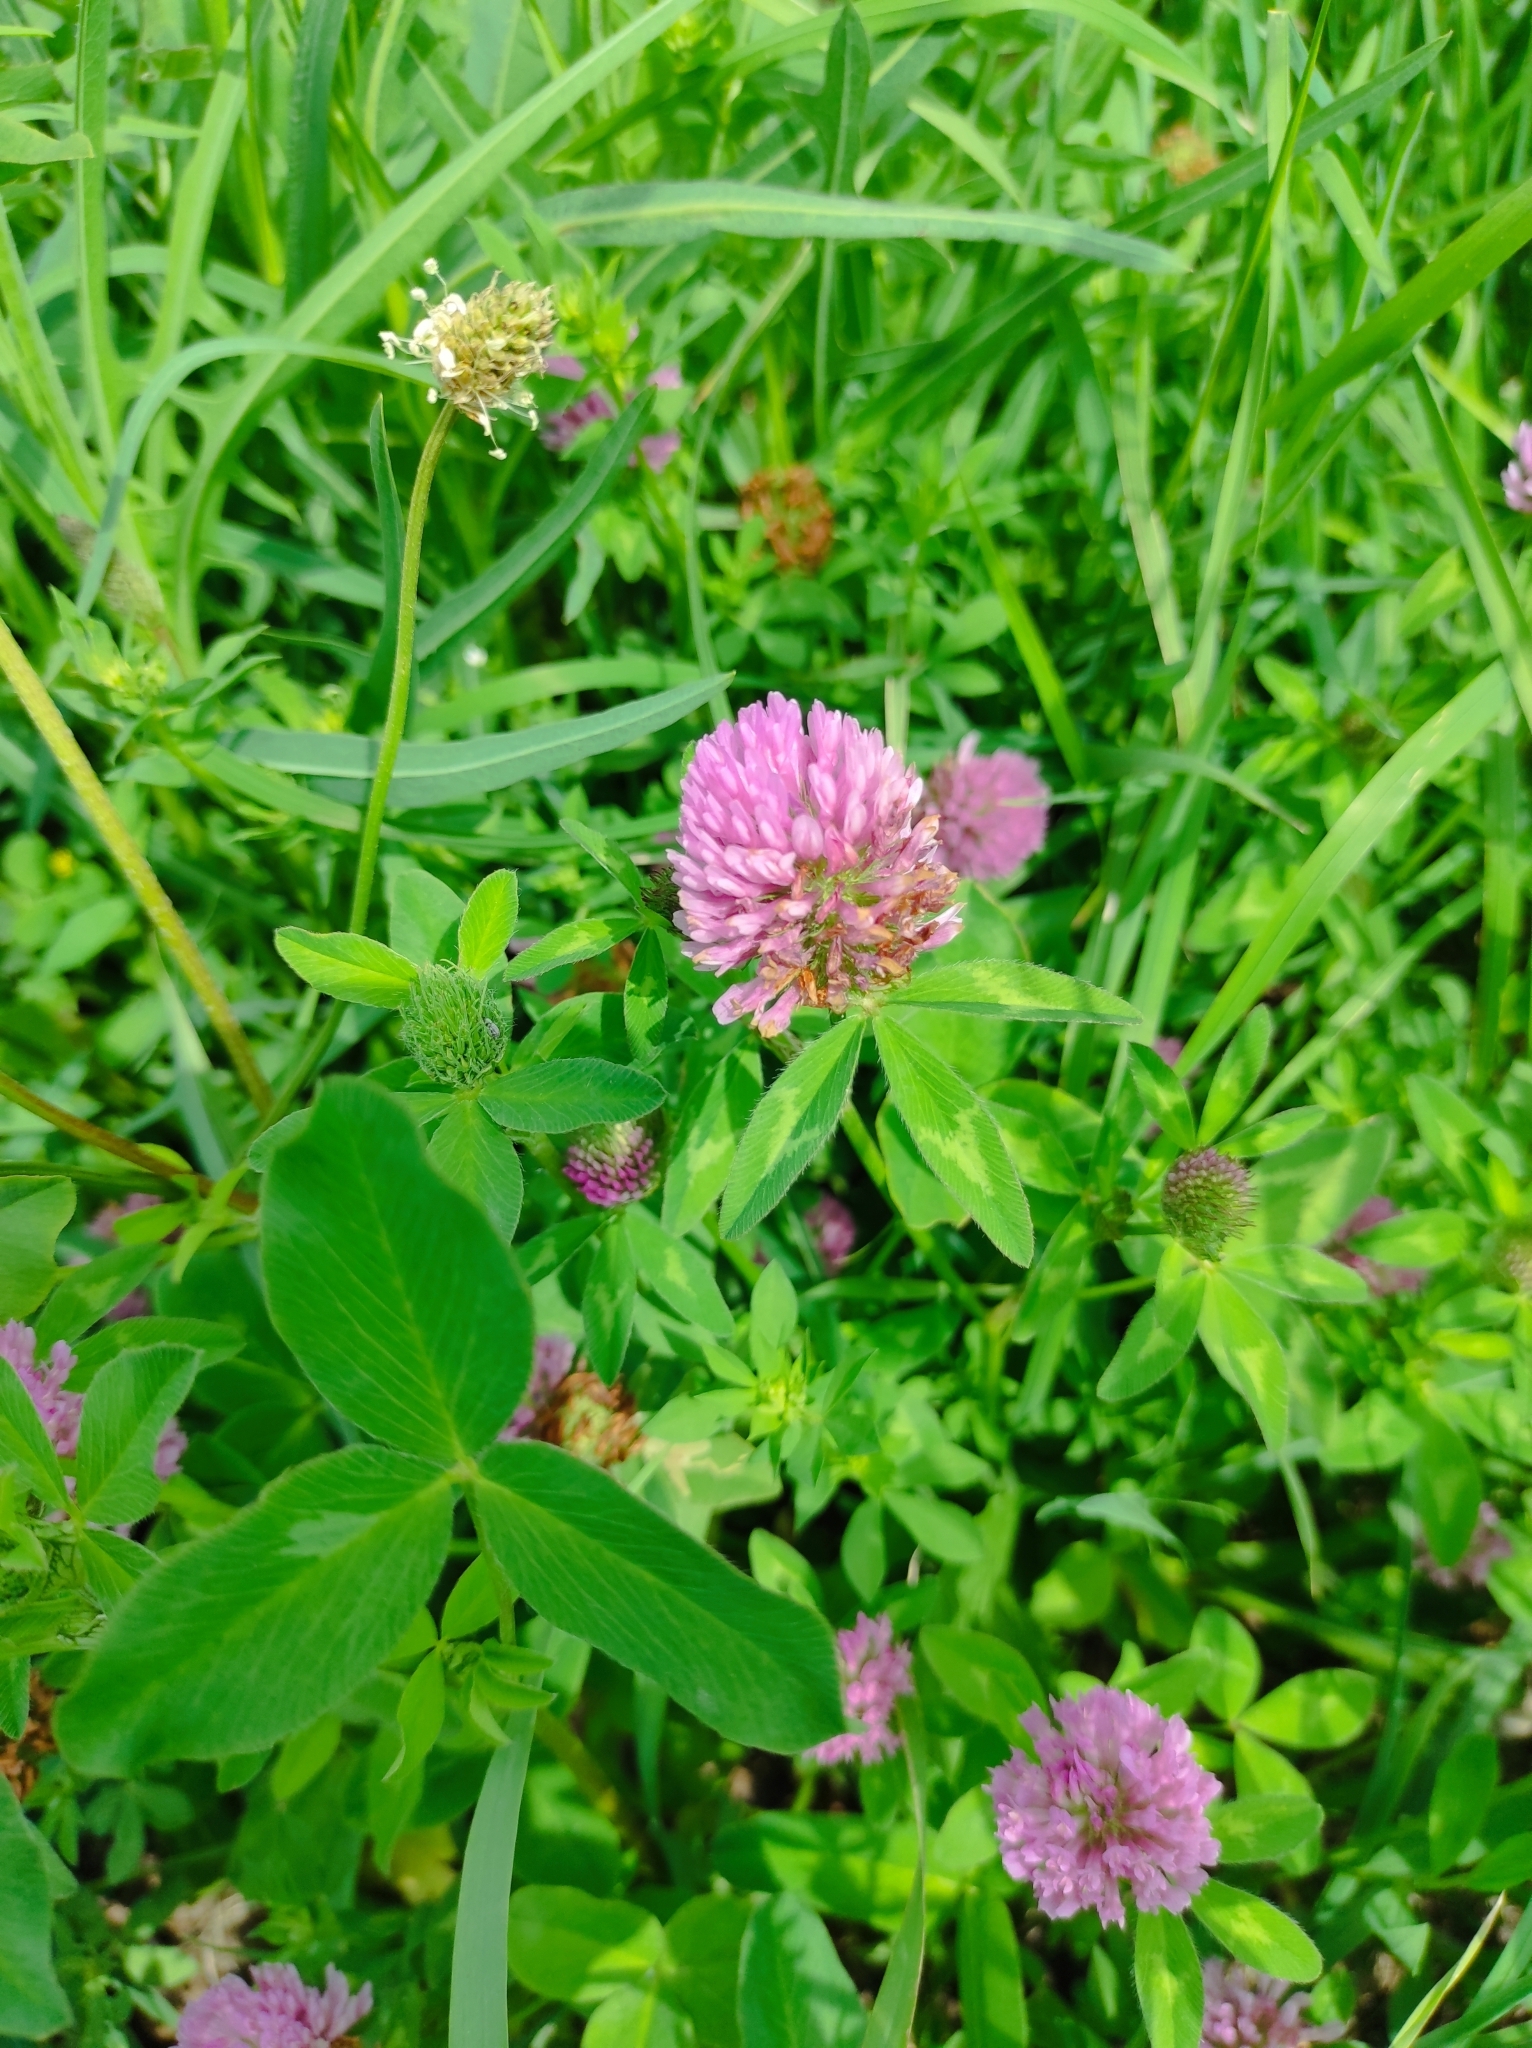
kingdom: Plantae
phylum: Tracheophyta
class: Magnoliopsida
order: Fabales
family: Fabaceae
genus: Trifolium
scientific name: Trifolium pratense
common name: Red clover
